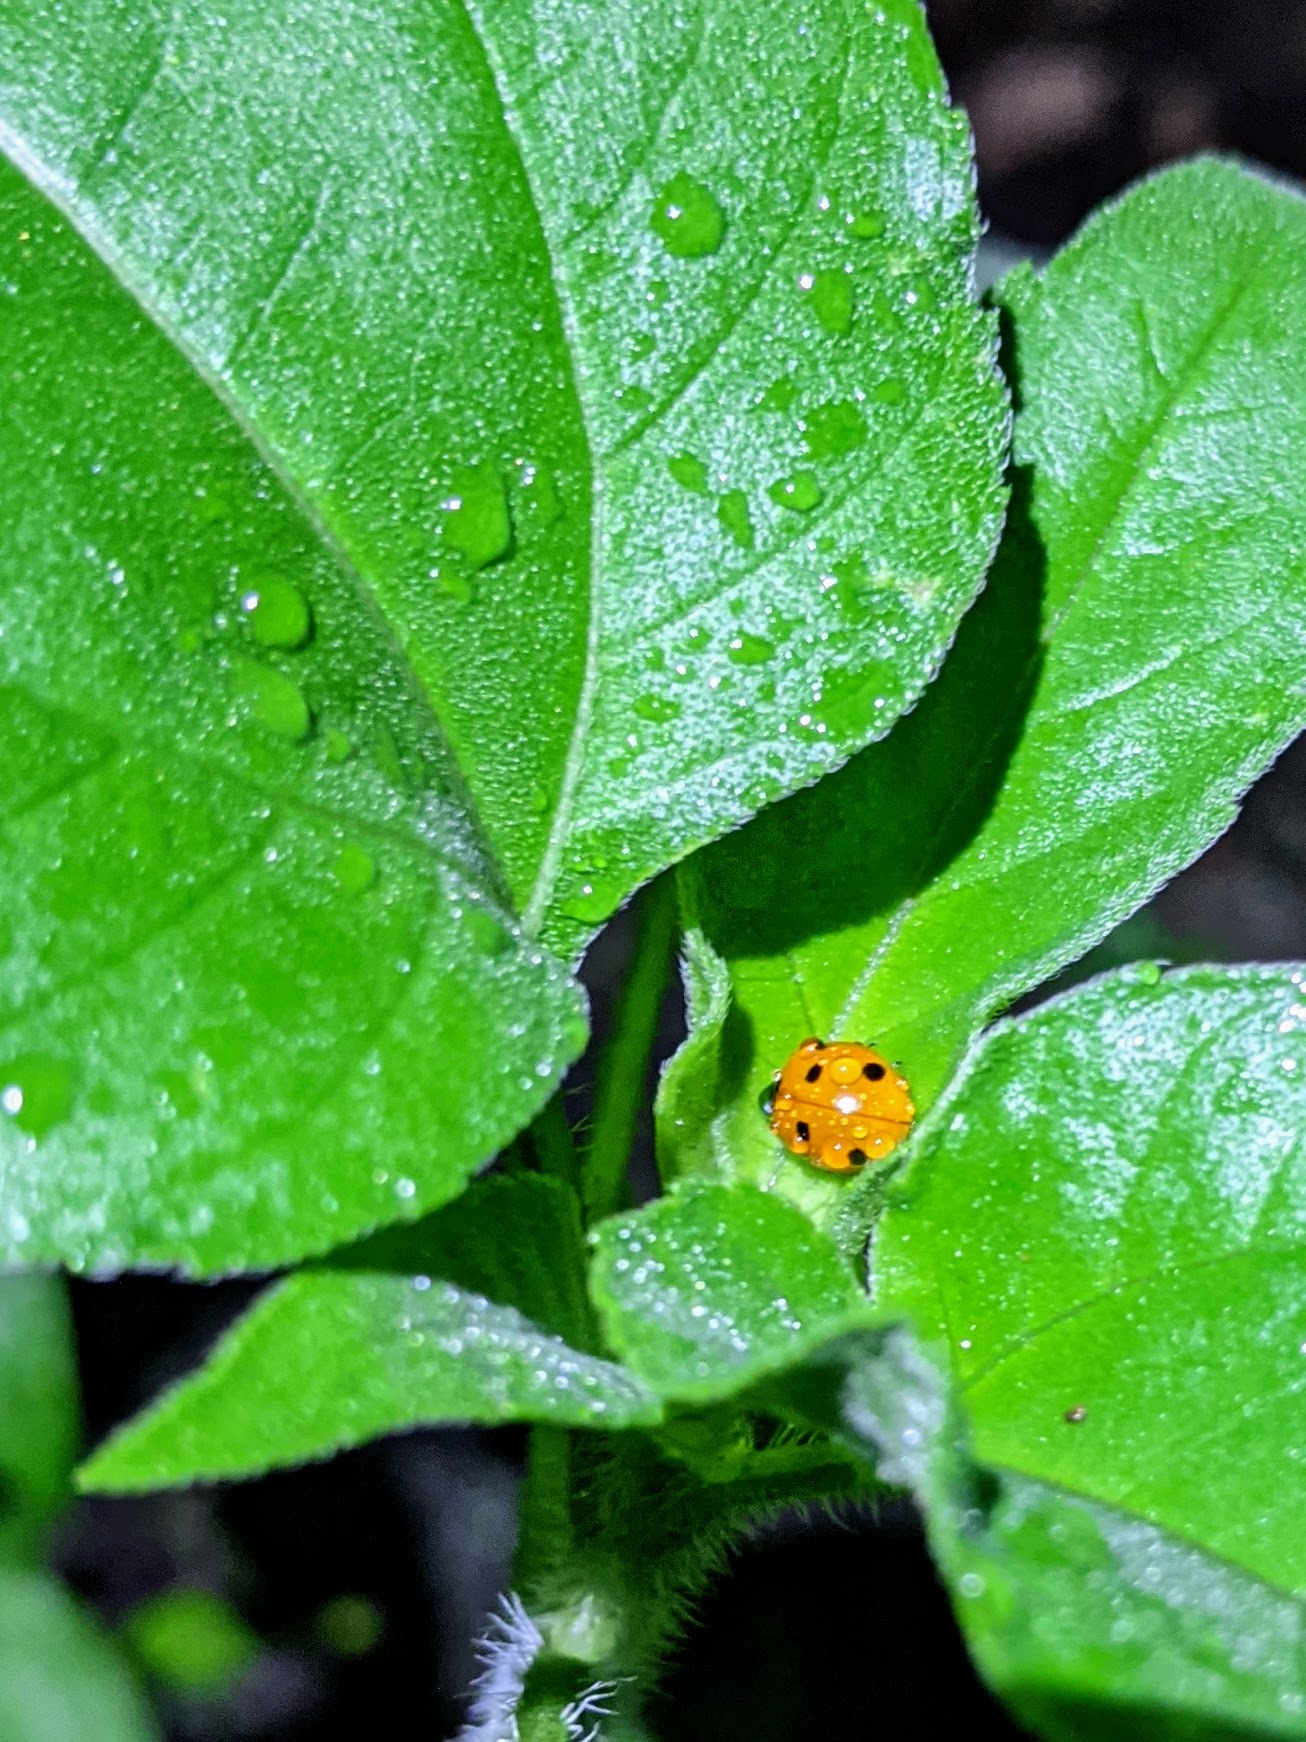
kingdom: Animalia
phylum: Arthropoda
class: Insecta
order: Coleoptera
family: Coccinellidae
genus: Coccinella
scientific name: Coccinella septempunctata
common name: Sevenspotted lady beetle
